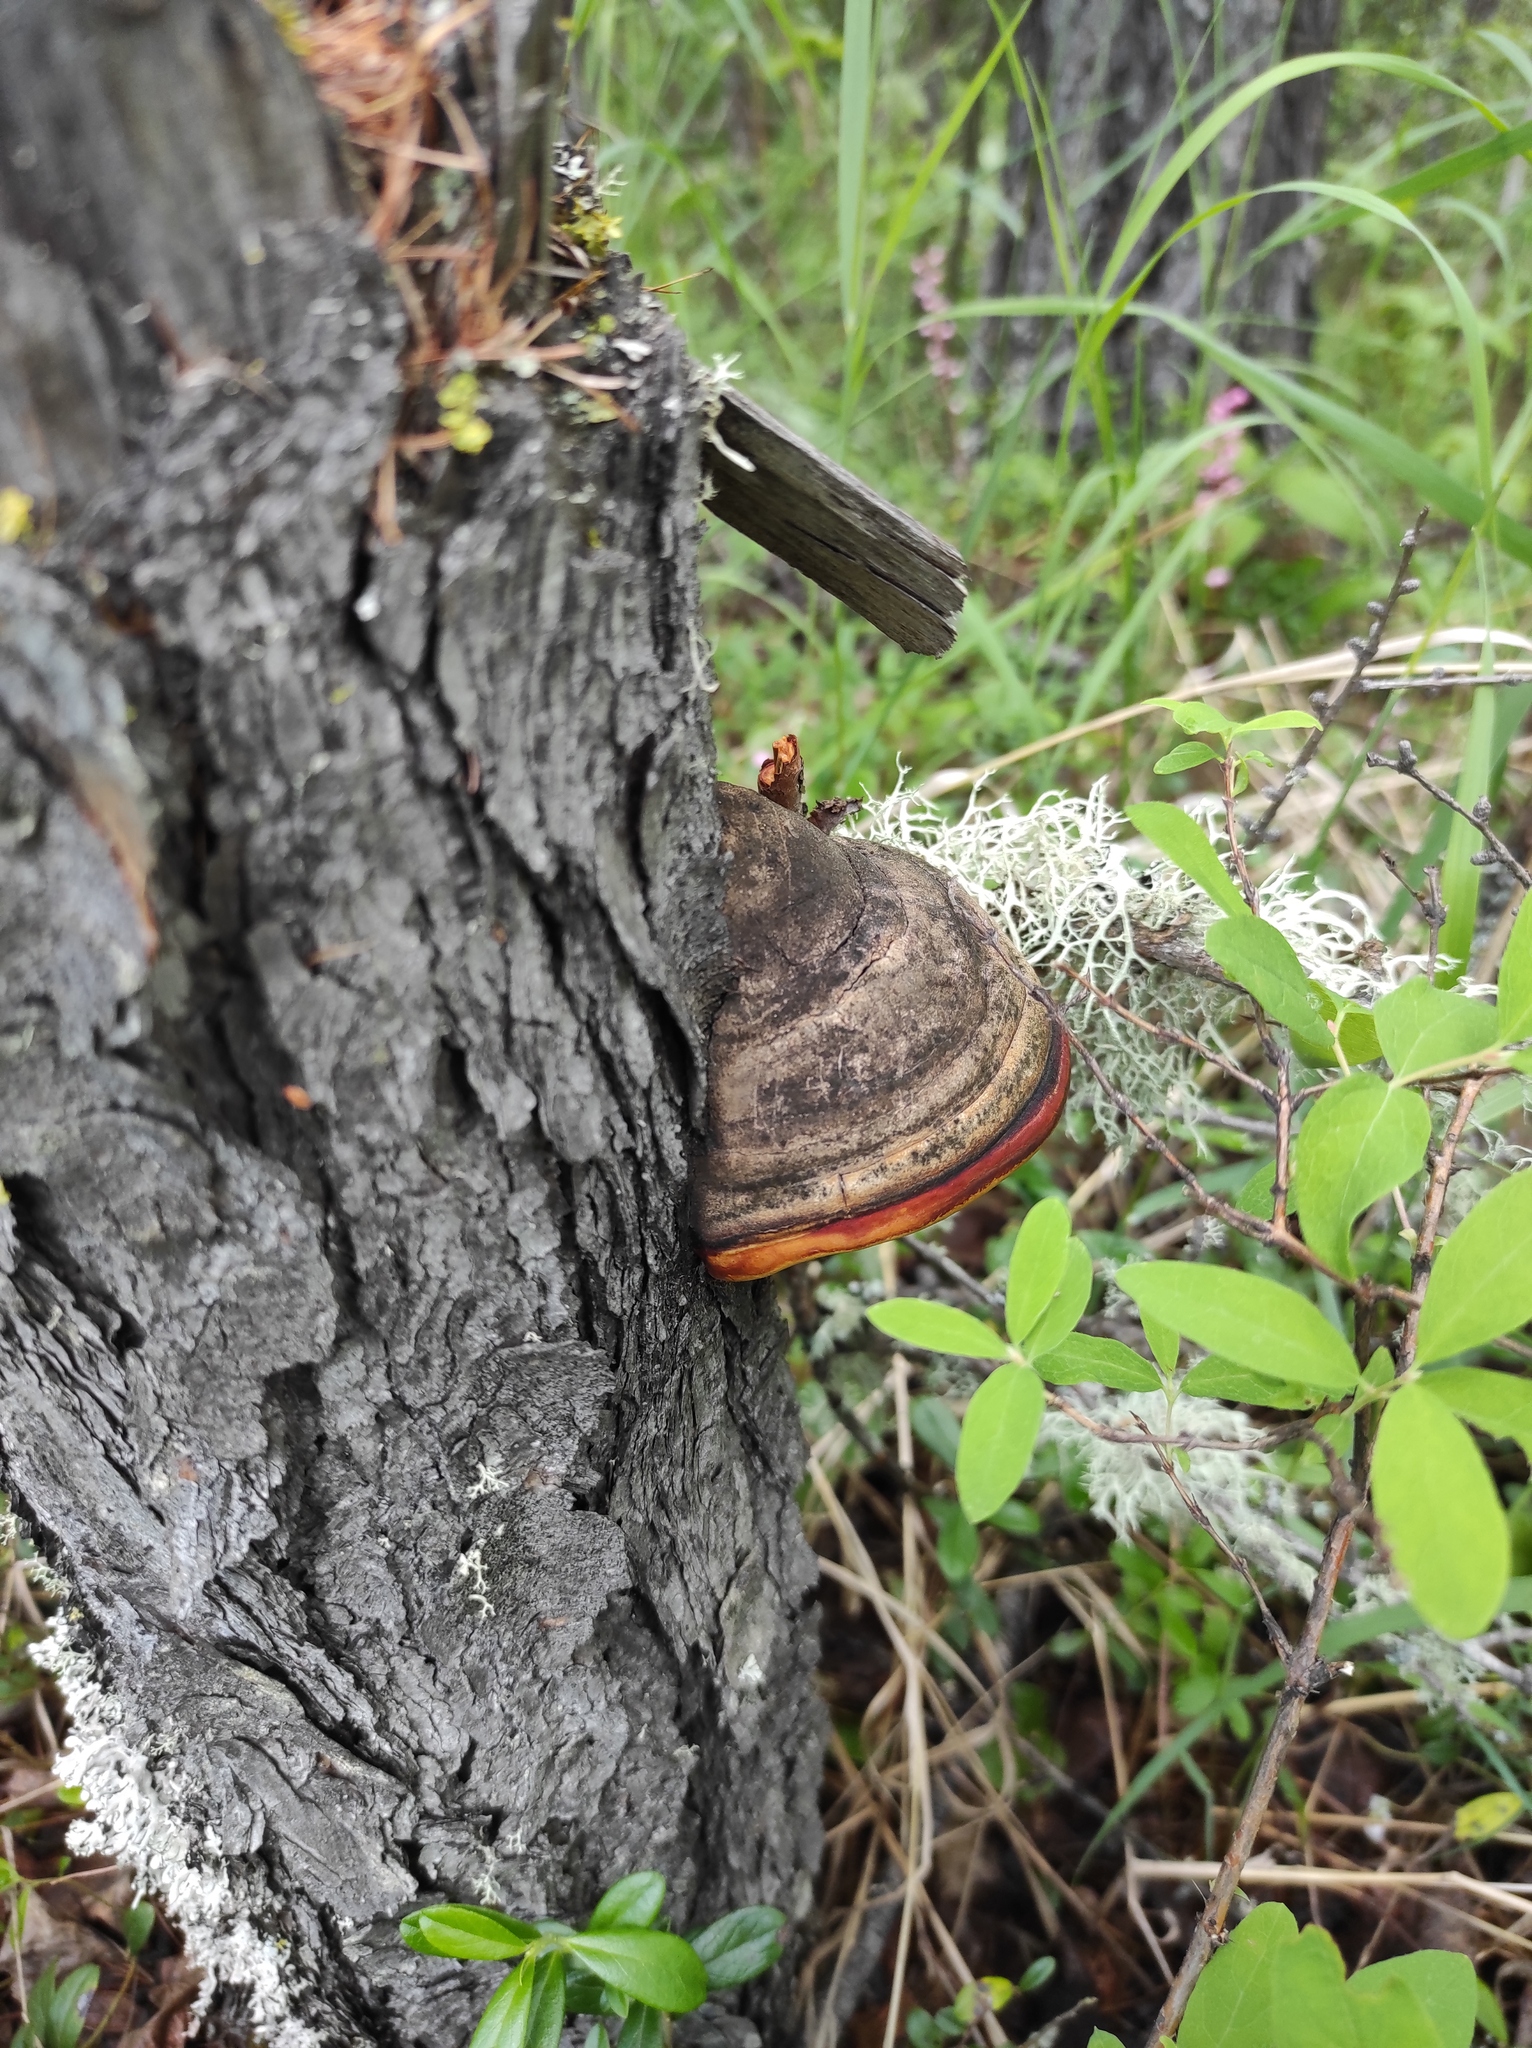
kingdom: Fungi
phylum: Basidiomycota
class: Agaricomycetes
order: Polyporales
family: Fomitopsidaceae
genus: Fomitopsis
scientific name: Fomitopsis pinicola
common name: Red-belted bracket
